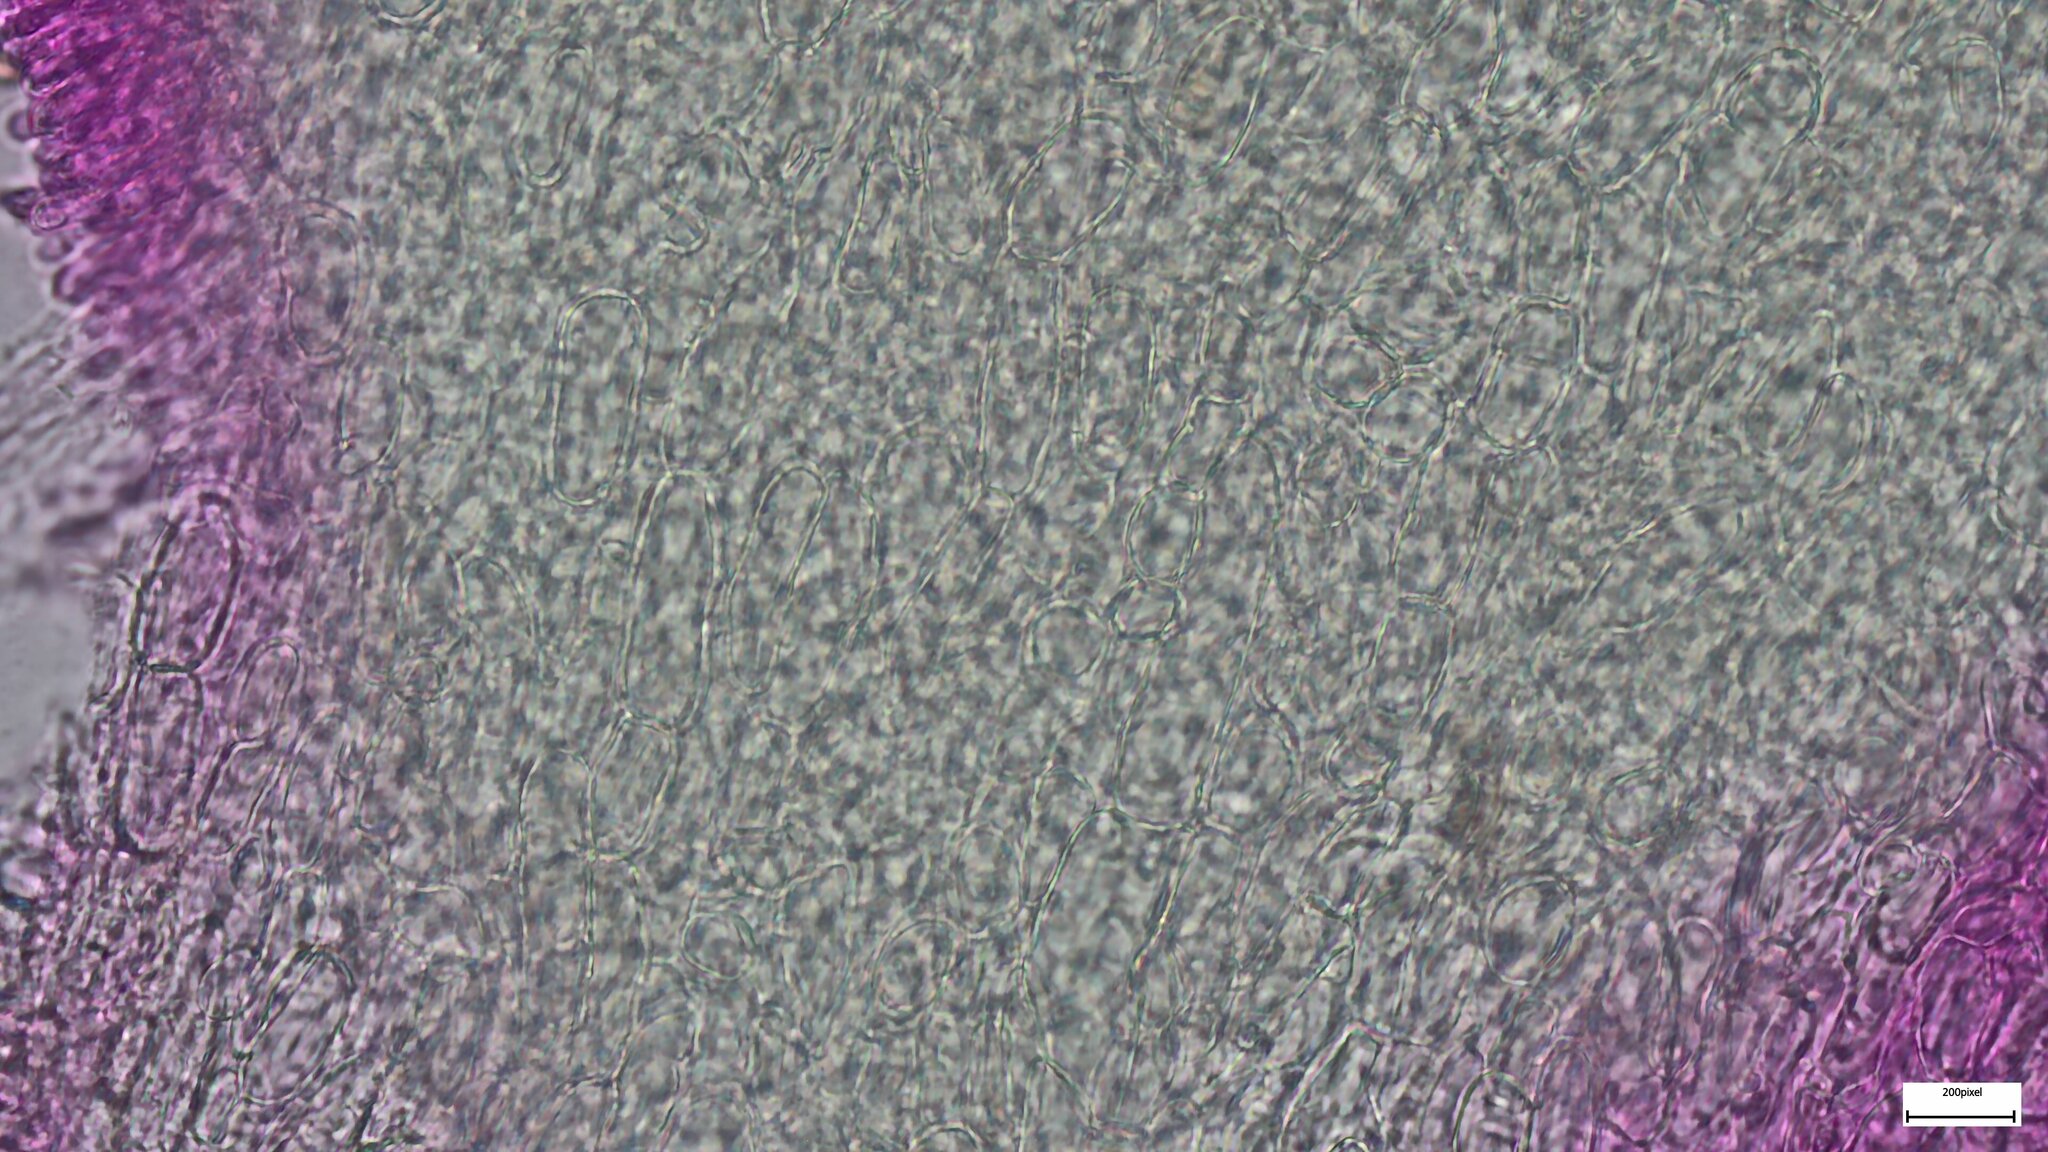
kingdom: Fungi
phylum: Basidiomycota
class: Agaricomycetes
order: Agaricales
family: Mycenaceae
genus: Mycena
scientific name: Mycena haematopus
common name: Burgundydrop bonnet
